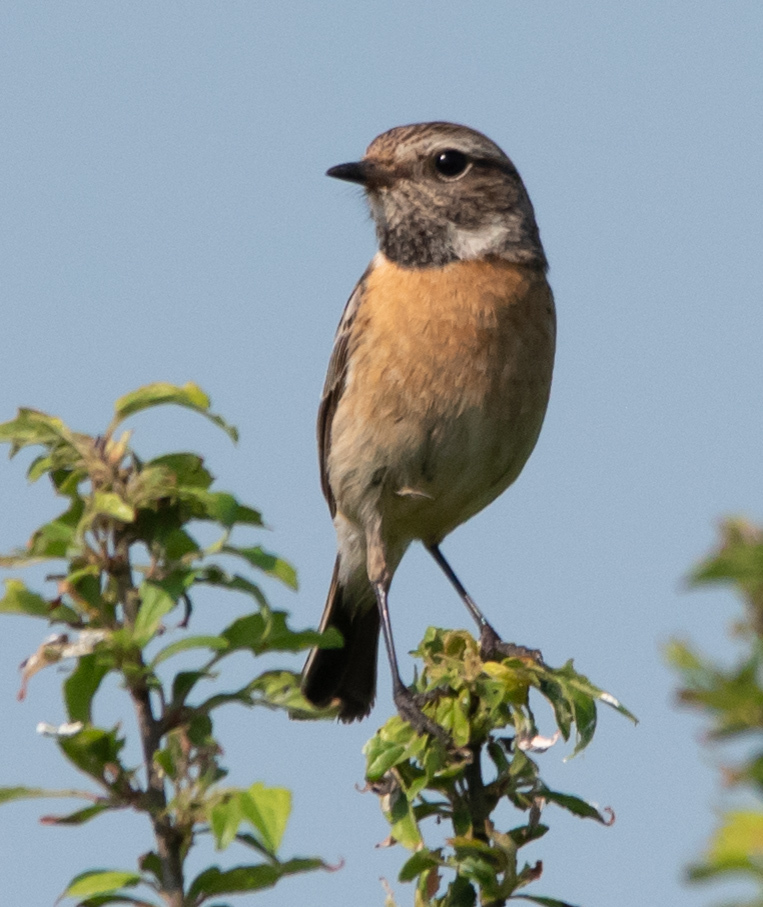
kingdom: Animalia
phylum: Chordata
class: Aves
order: Passeriformes
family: Muscicapidae
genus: Saxicola
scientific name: Saxicola rubicola
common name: European stonechat
